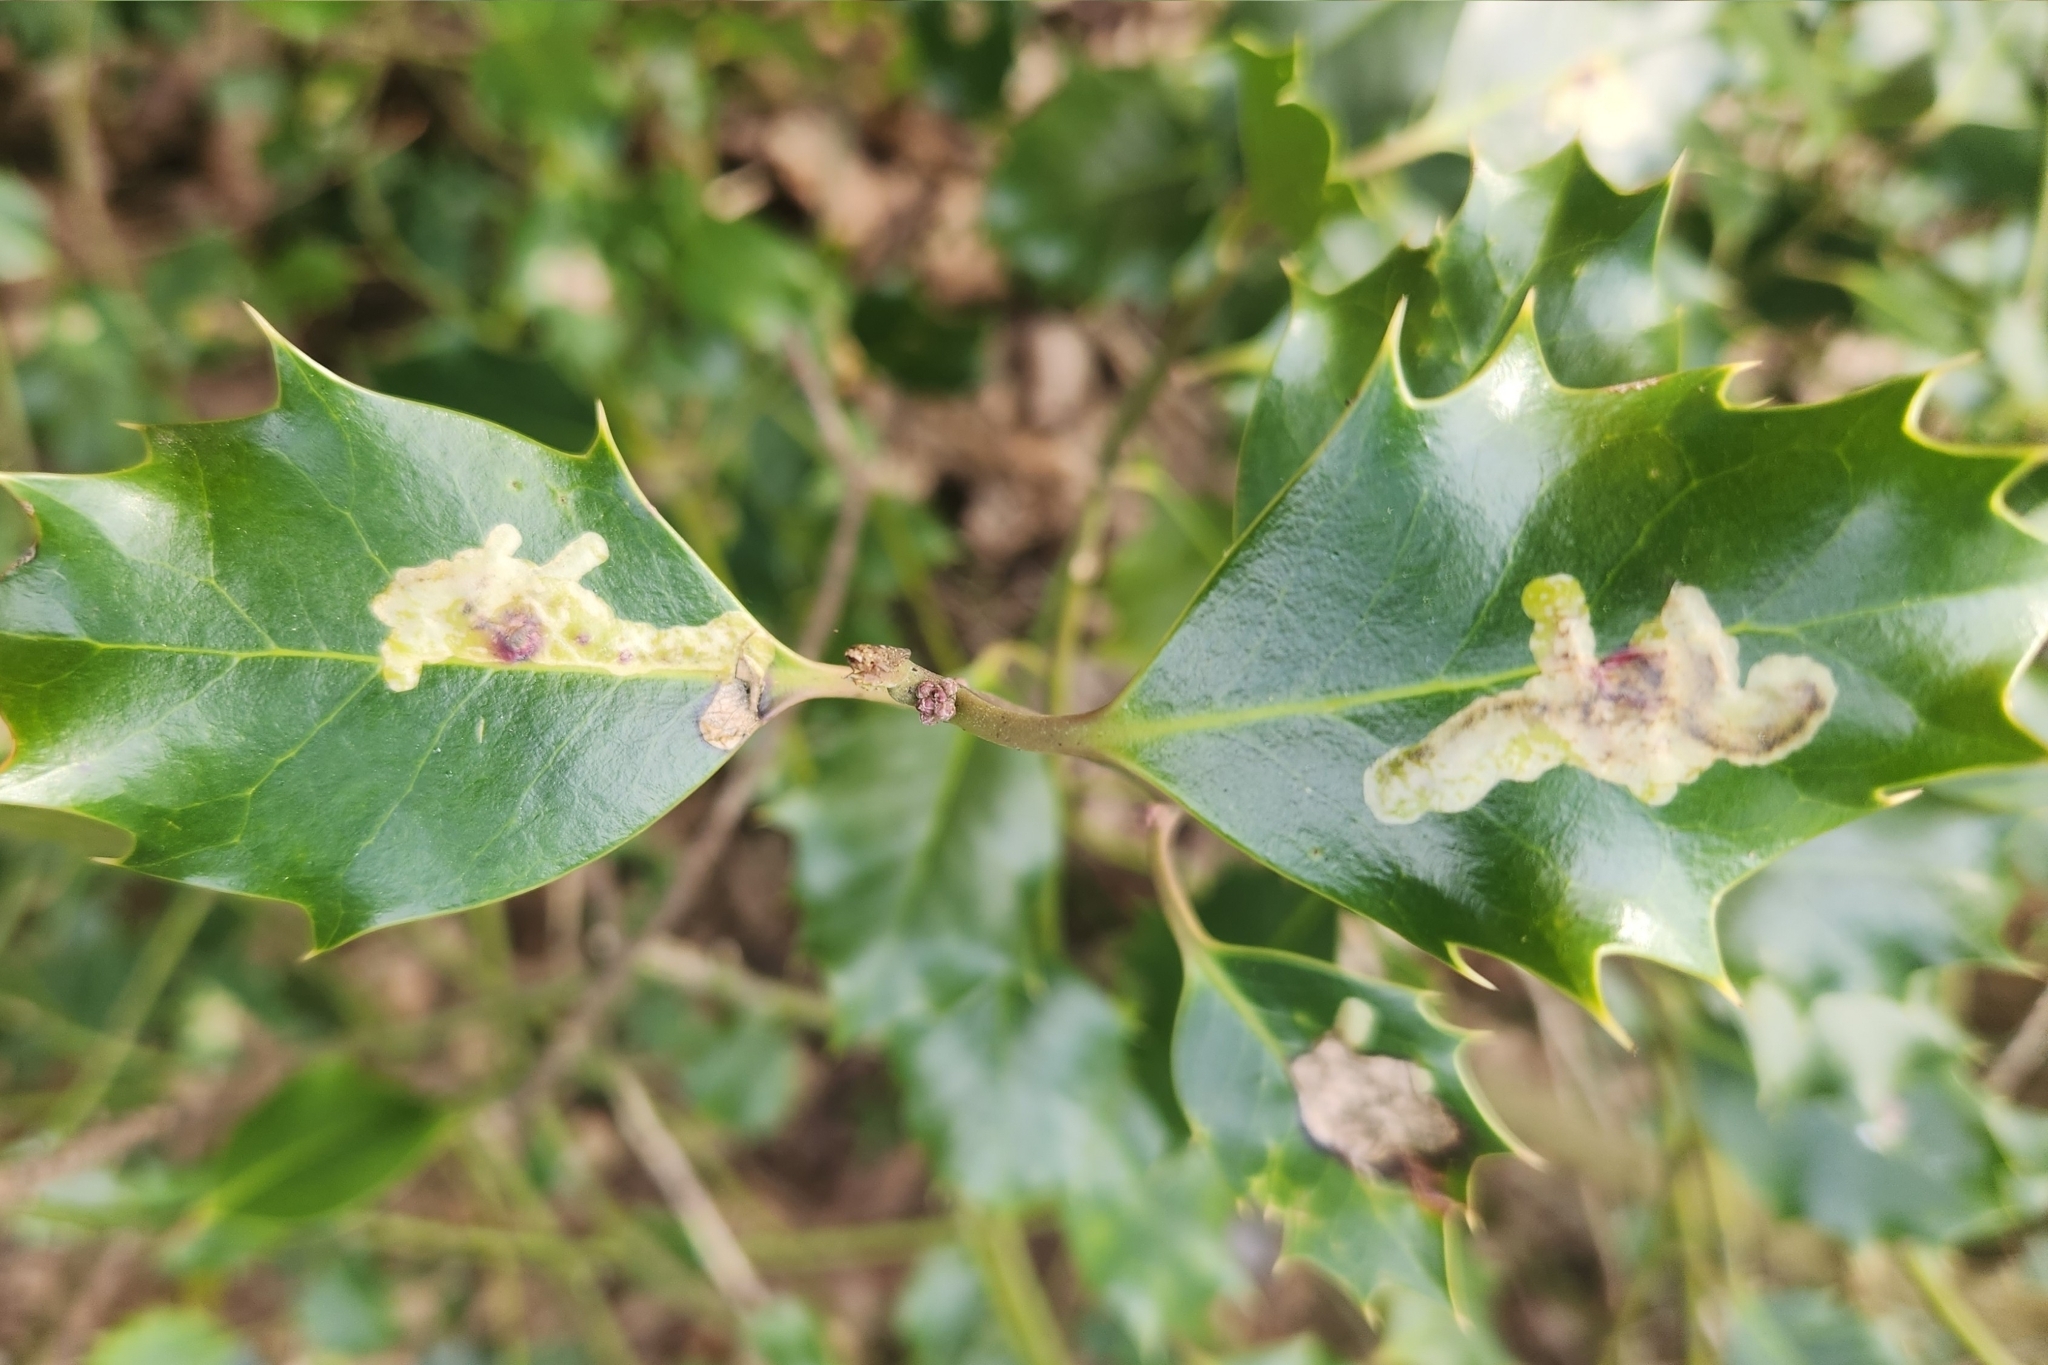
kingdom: Animalia
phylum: Arthropoda
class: Insecta
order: Diptera
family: Agromyzidae
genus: Phytomyza
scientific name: Phytomyza ilicis
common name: Holly leafminer
